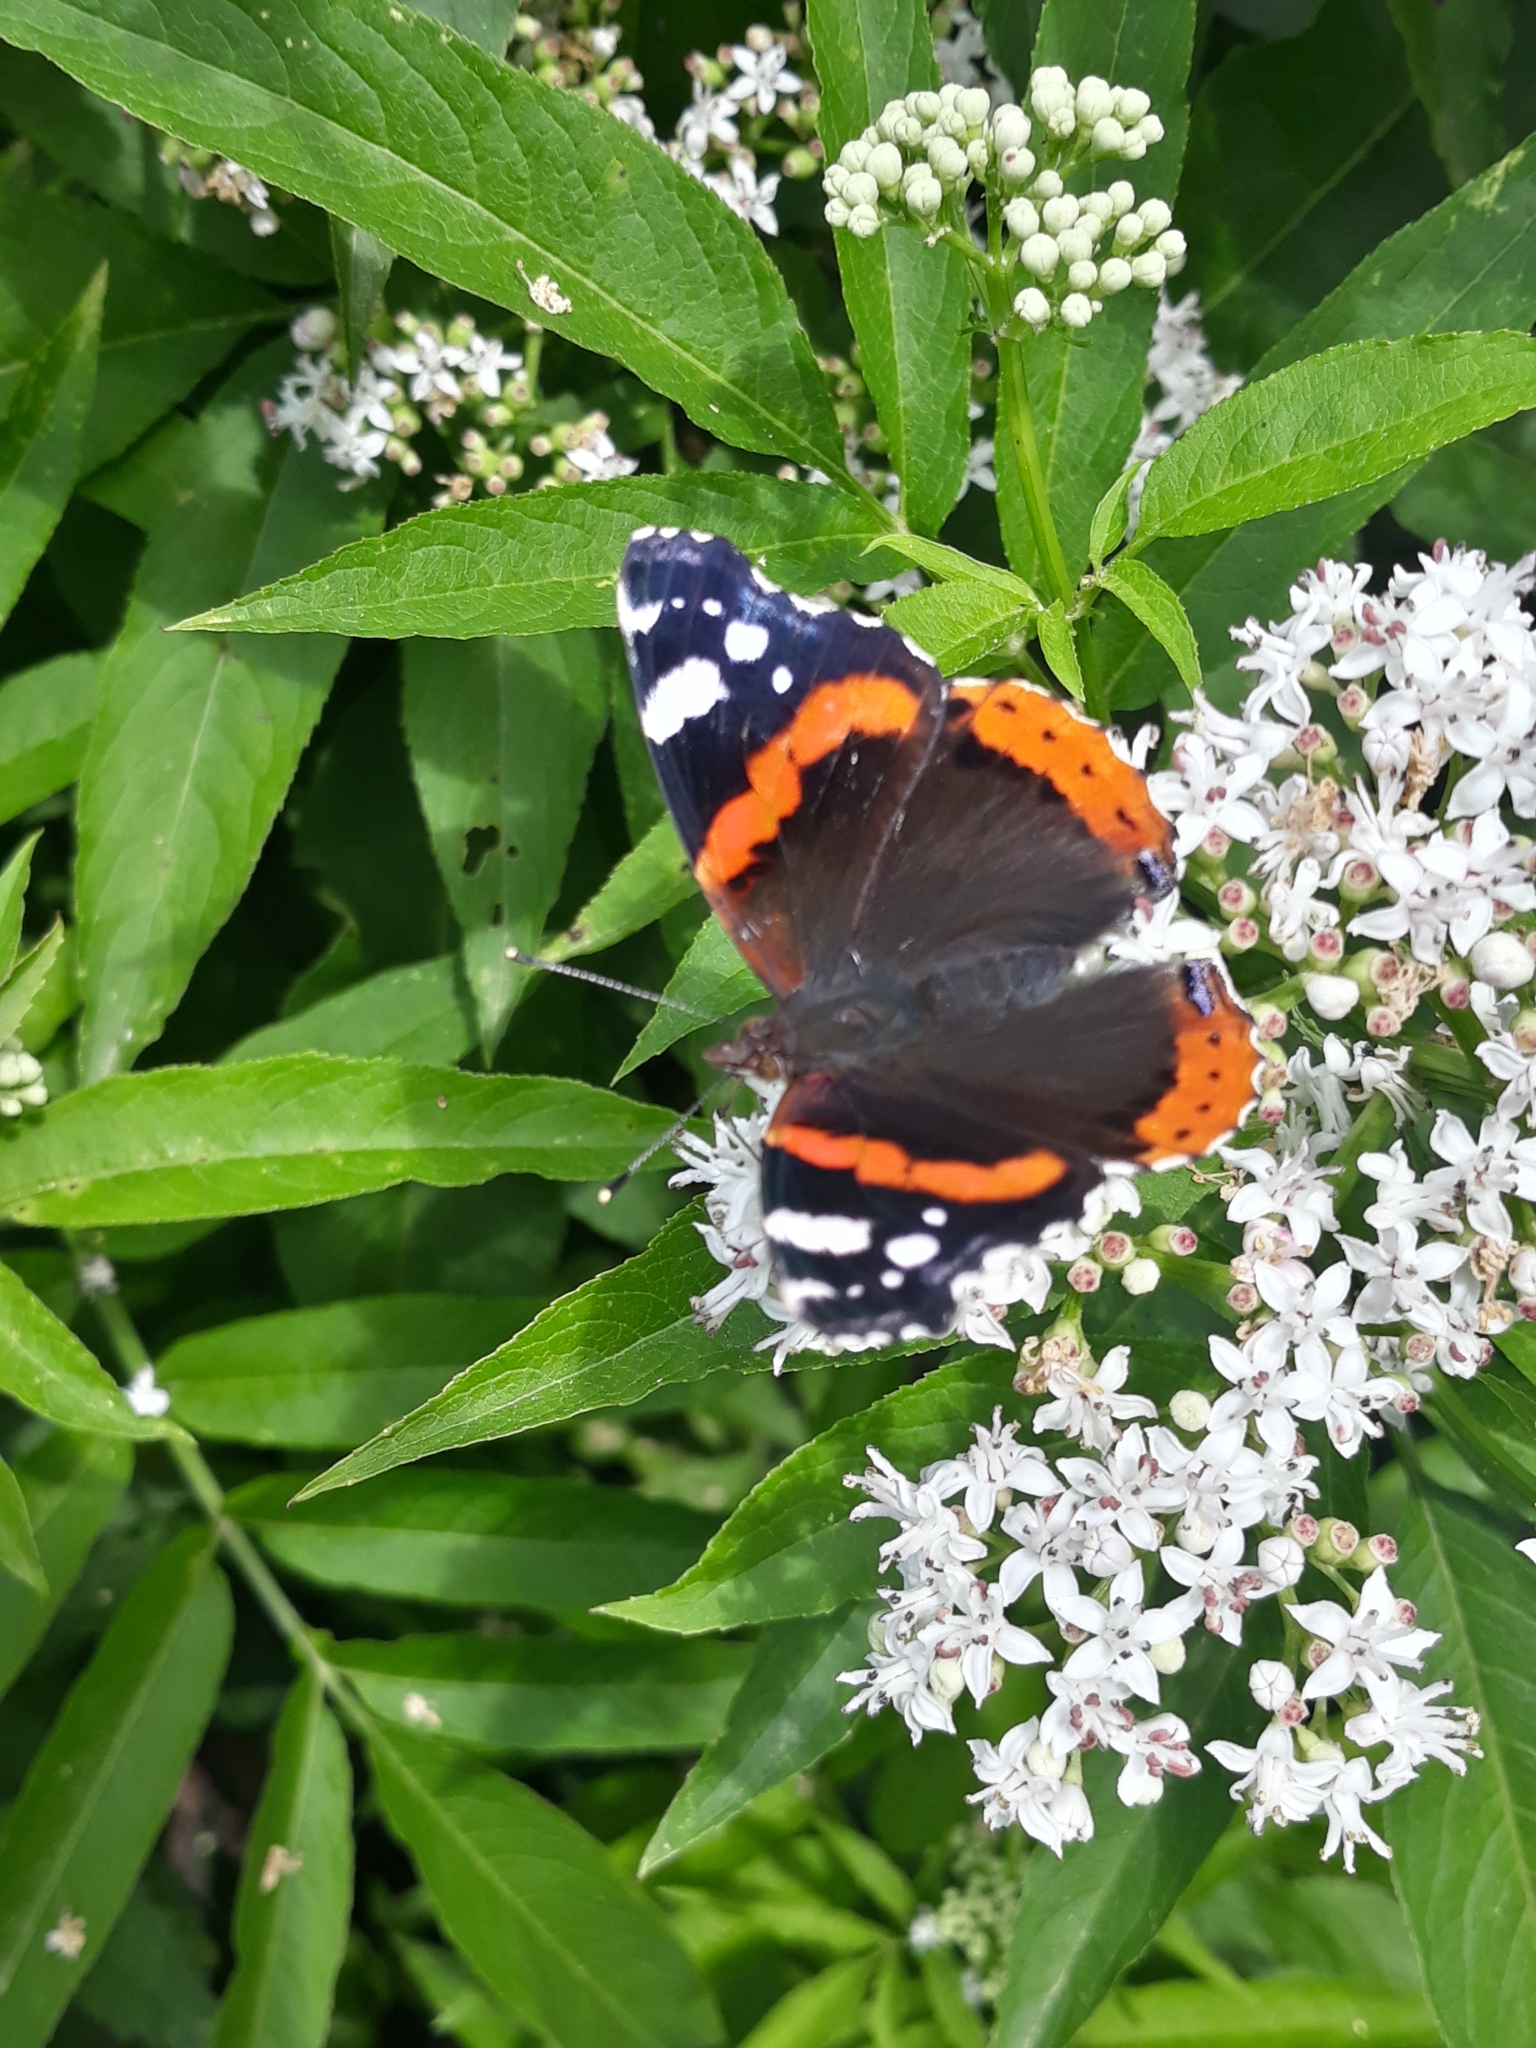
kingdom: Animalia
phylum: Arthropoda
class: Insecta
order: Lepidoptera
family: Nymphalidae
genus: Vanessa
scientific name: Vanessa atalanta
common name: Red admiral
